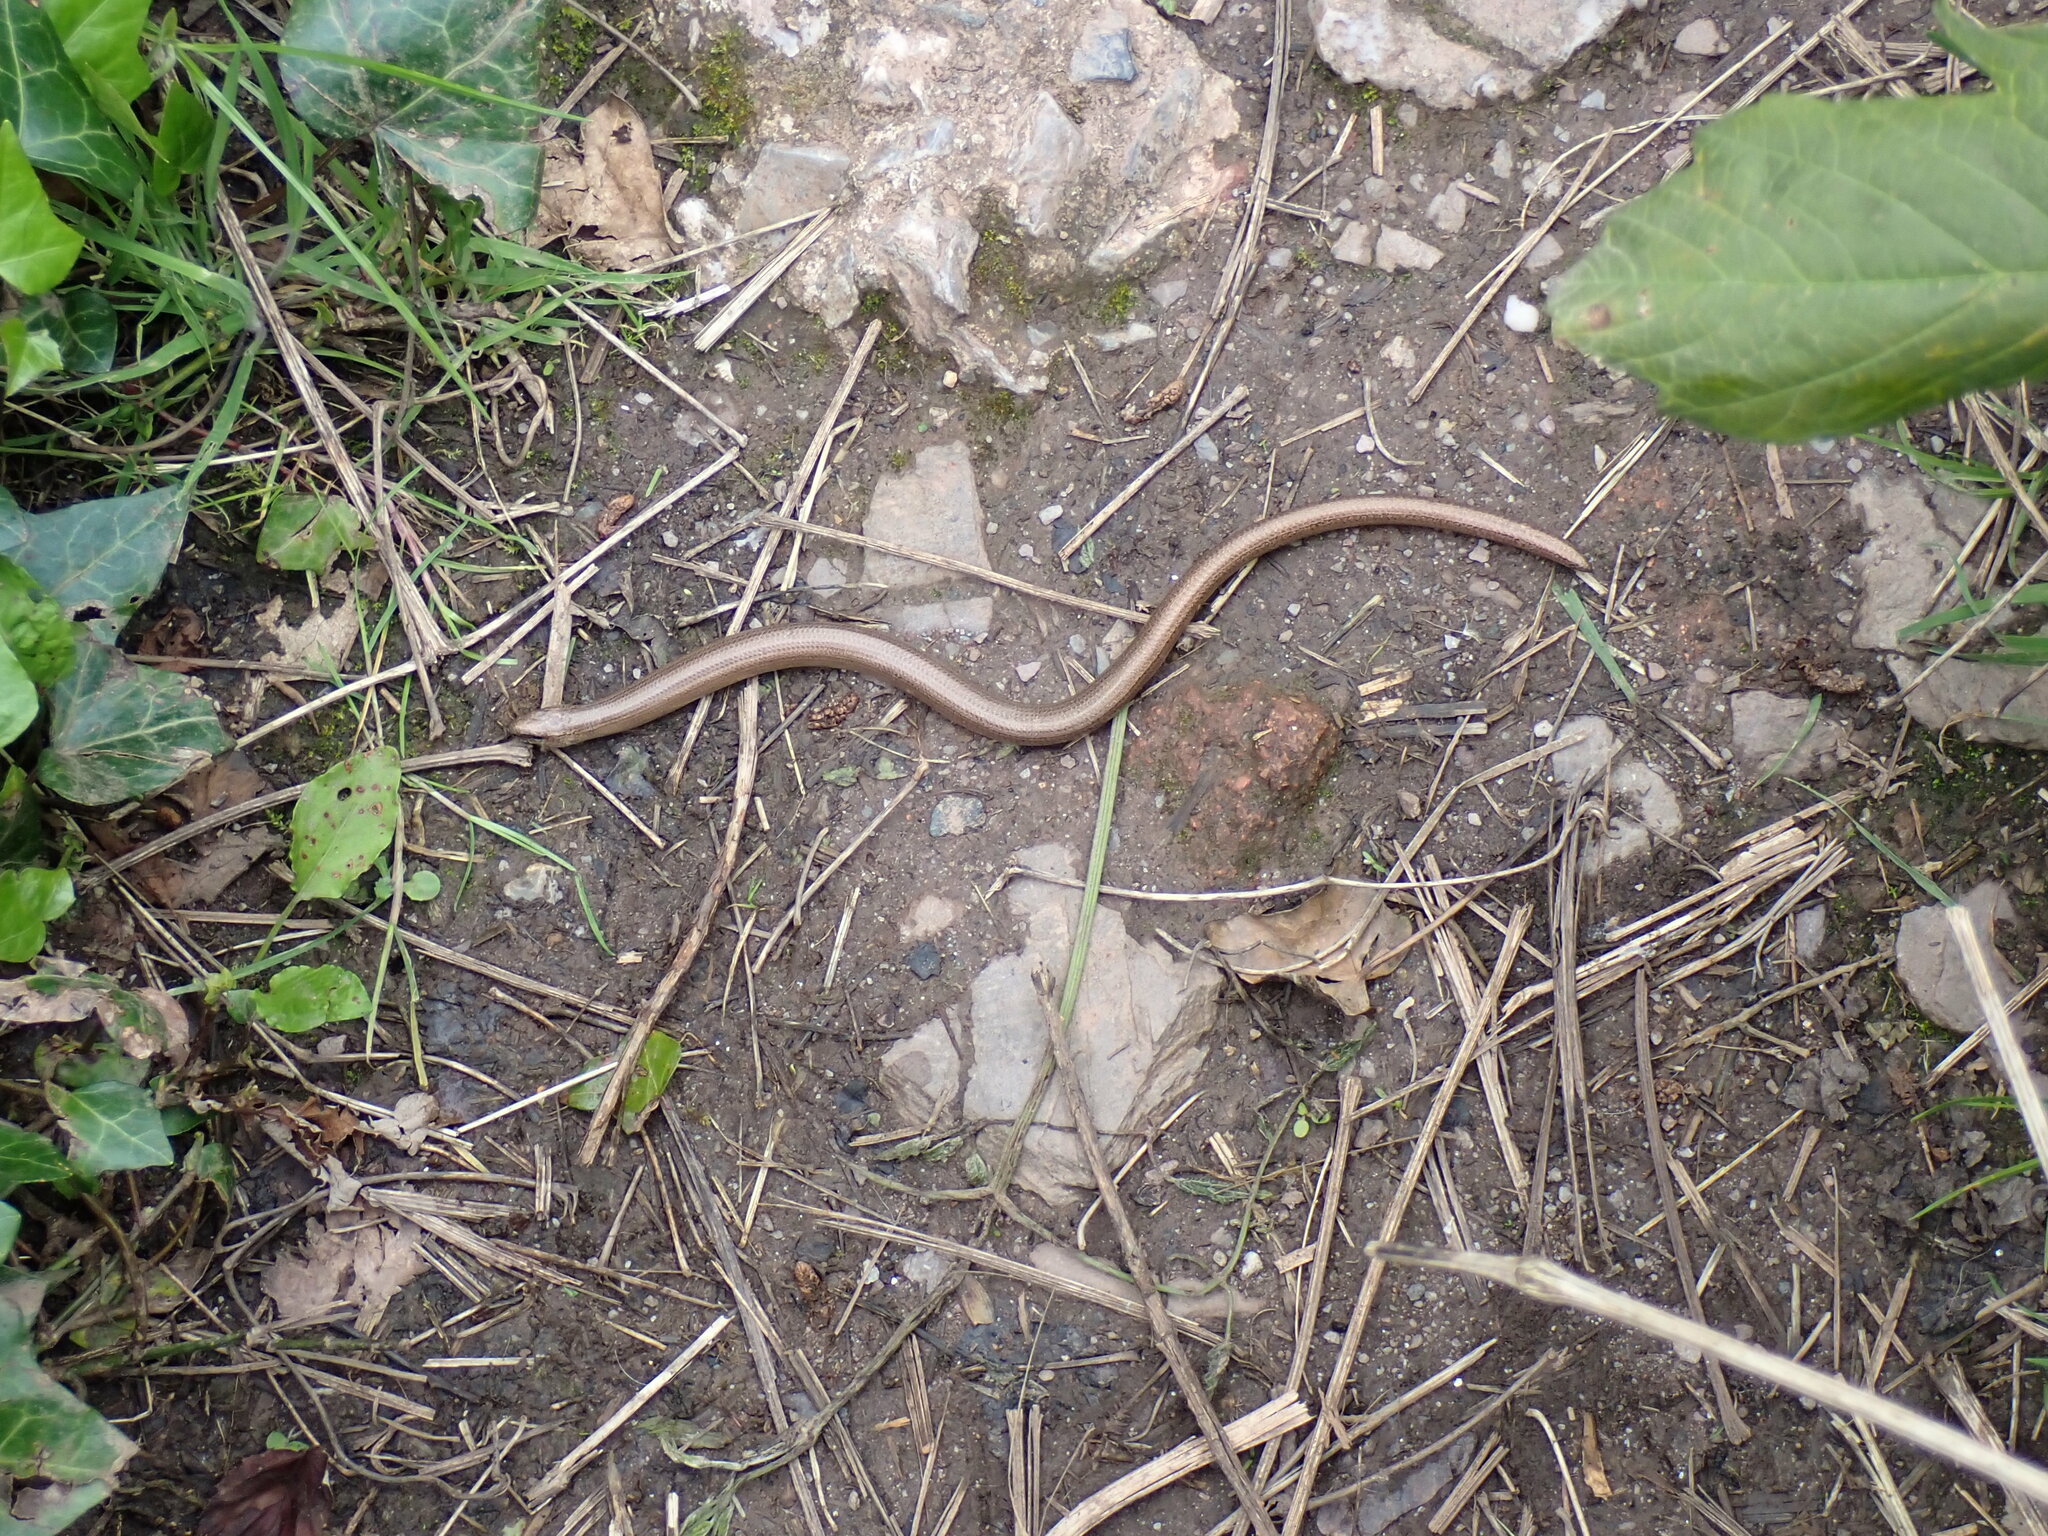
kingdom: Animalia
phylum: Chordata
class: Squamata
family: Anguidae
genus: Anguis
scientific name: Anguis fragilis
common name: Slow worm
